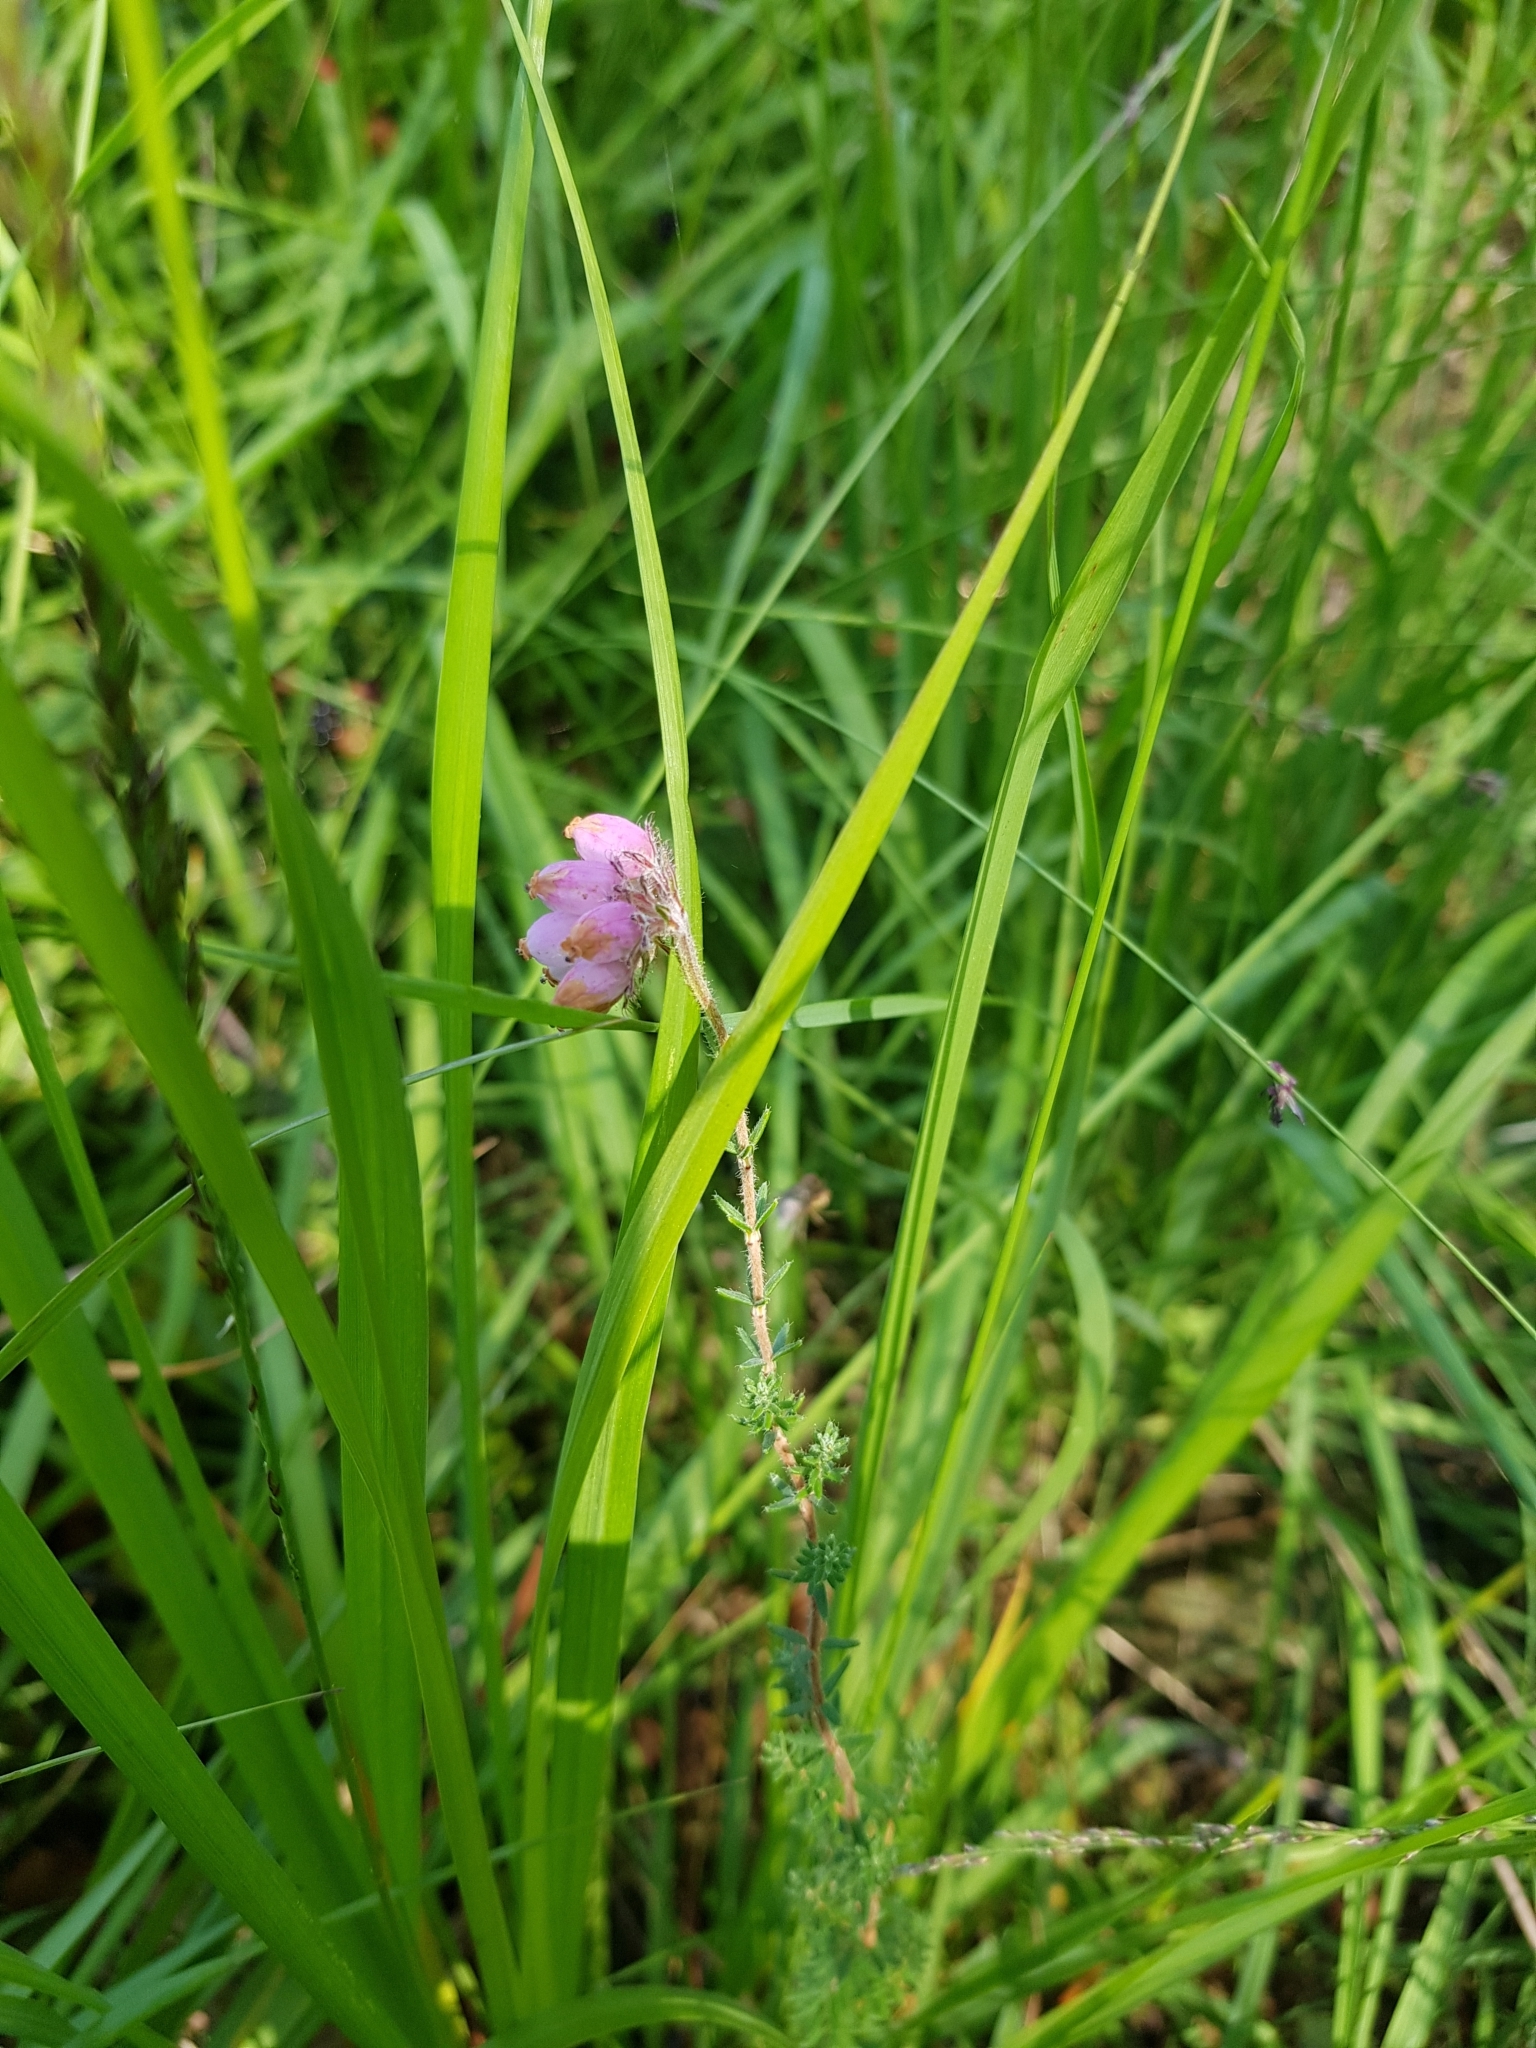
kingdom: Plantae
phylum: Tracheophyta
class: Magnoliopsida
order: Ericales
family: Ericaceae
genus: Erica
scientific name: Erica tetralix
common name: Cross-leaved heath
